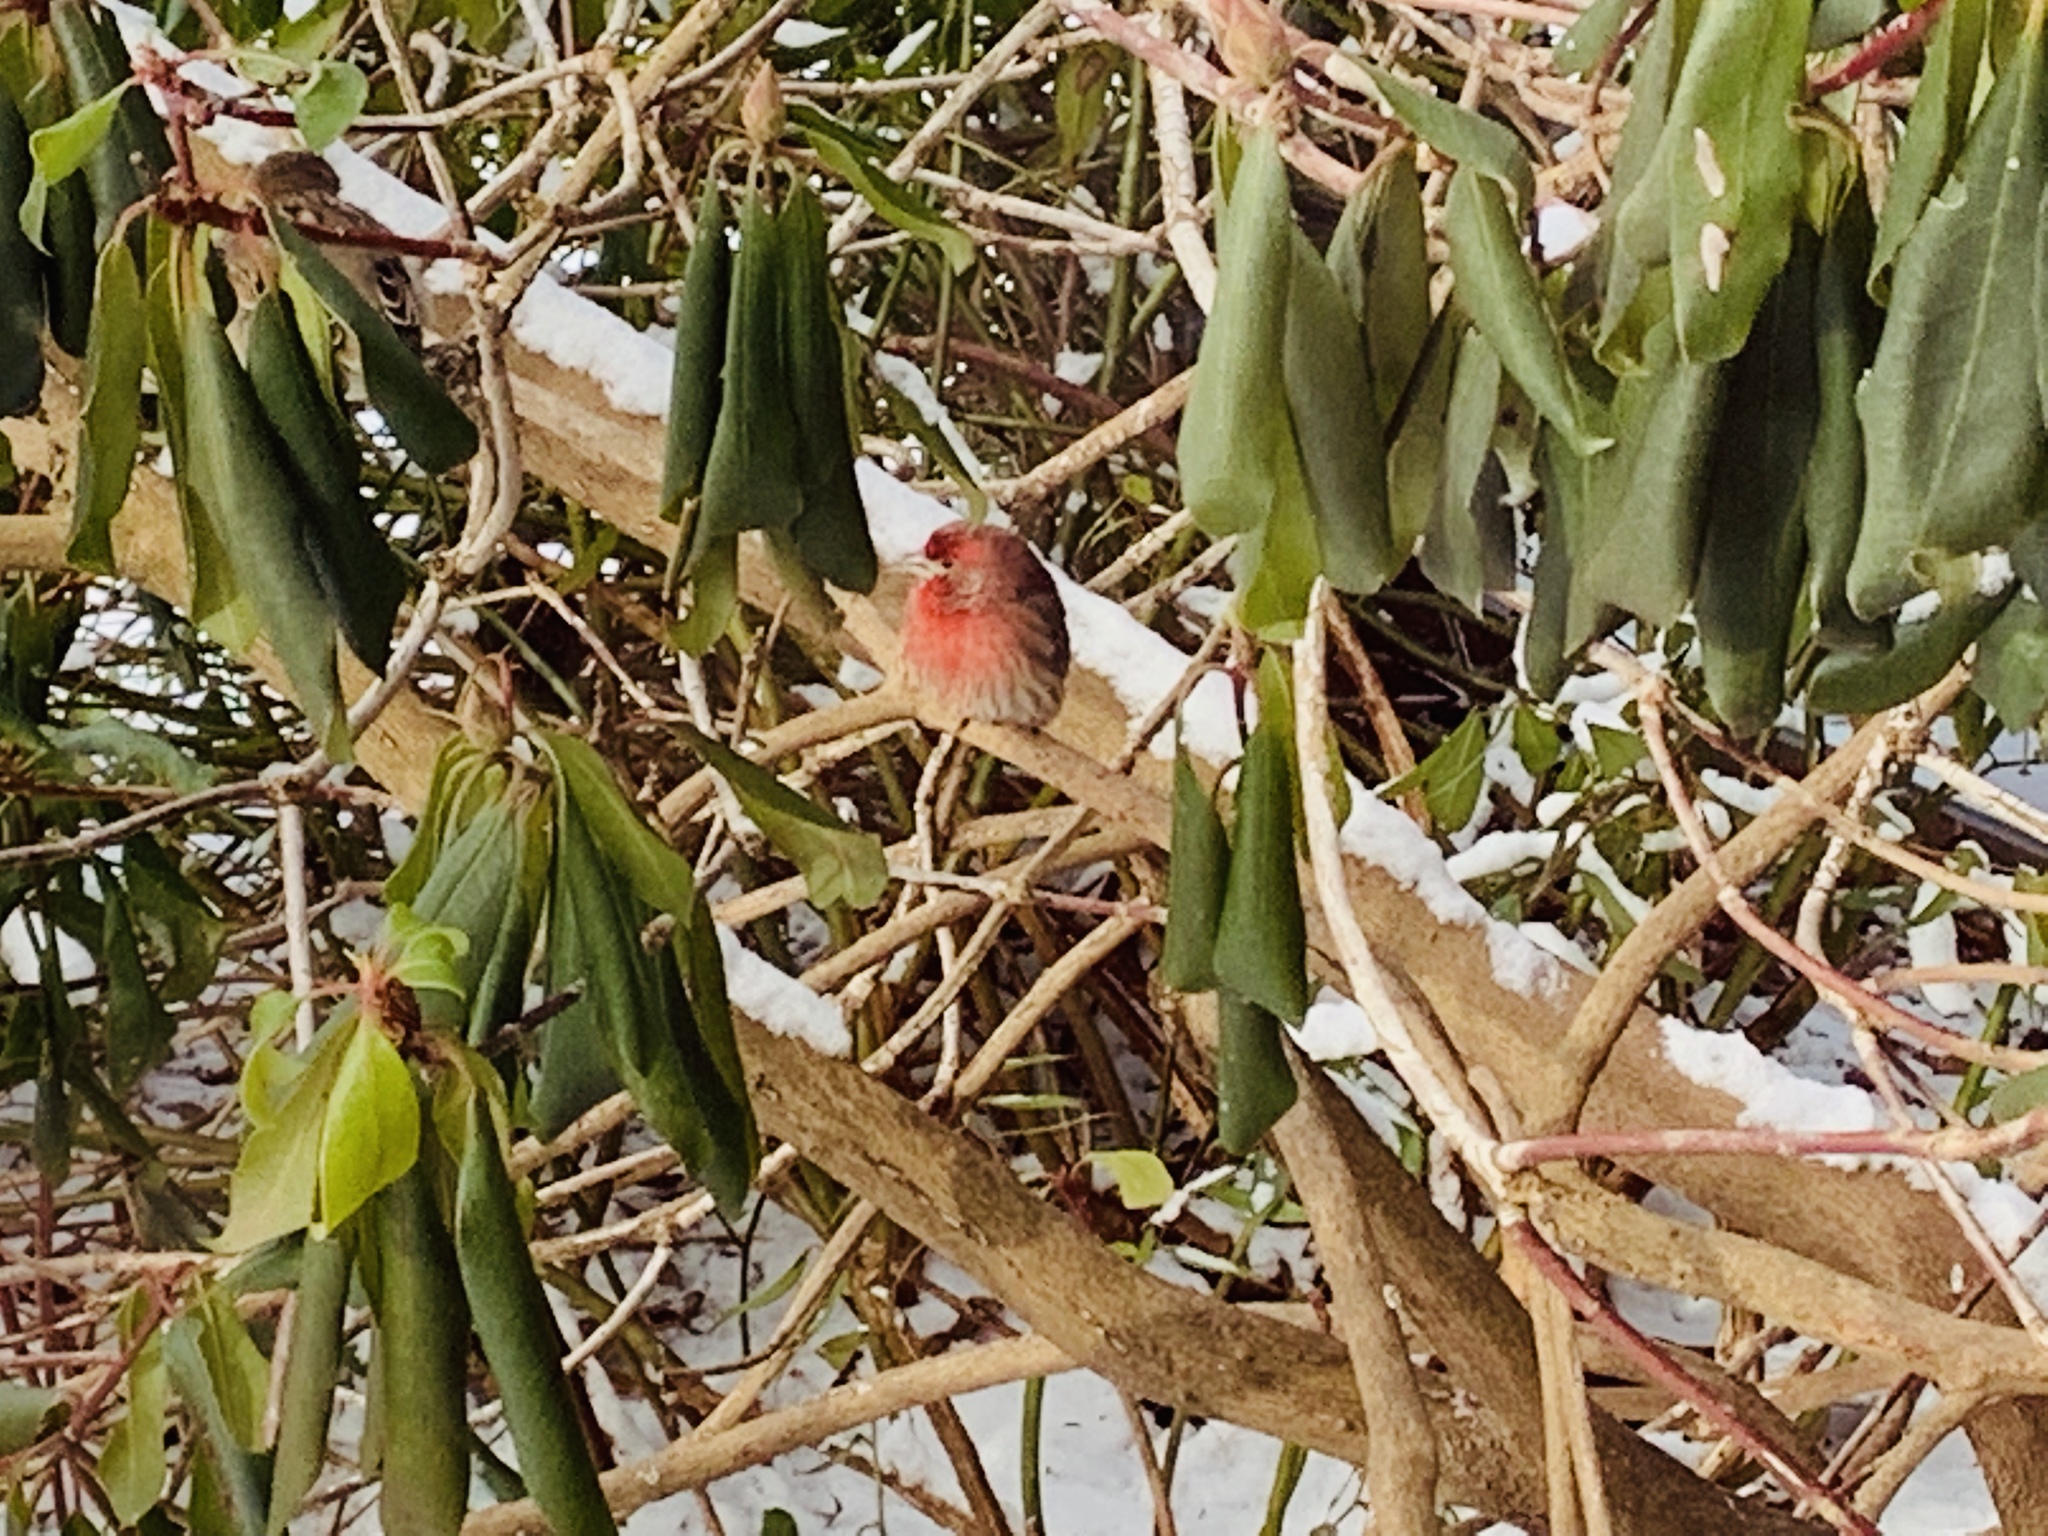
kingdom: Animalia
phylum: Chordata
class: Aves
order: Passeriformes
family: Fringillidae
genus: Haemorhous
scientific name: Haemorhous mexicanus
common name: House finch
